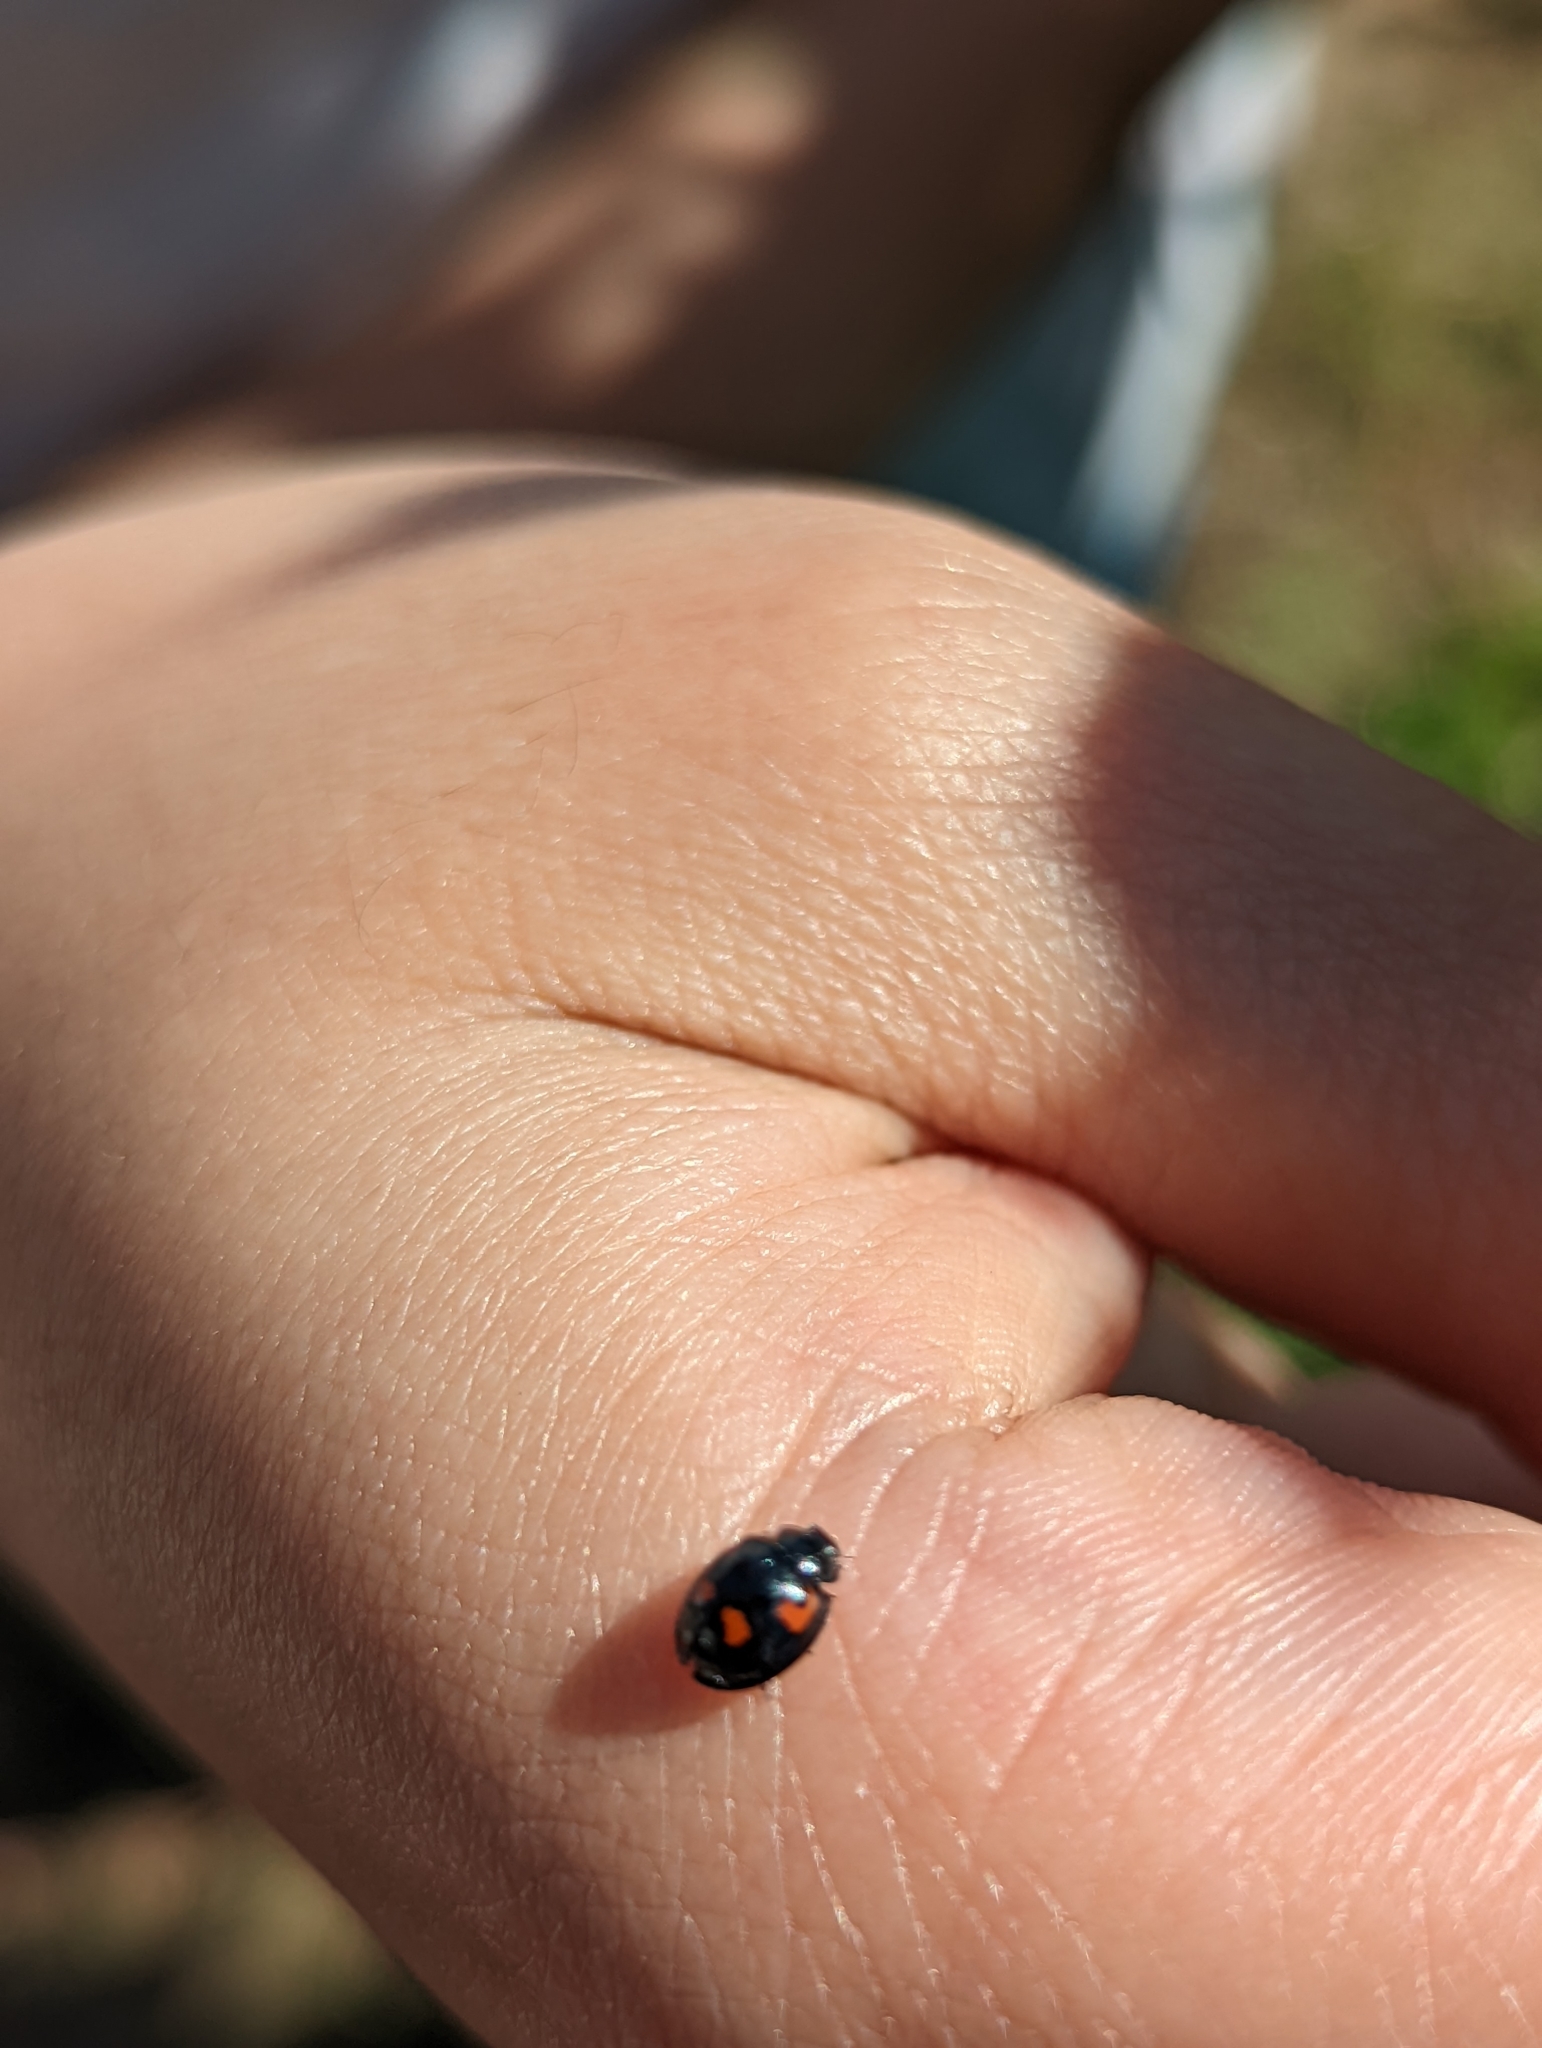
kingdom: Animalia
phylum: Arthropoda
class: Insecta
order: Coleoptera
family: Coccinellidae
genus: Brumus
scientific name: Brumus quadripustulatus
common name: Ladybird beetle
